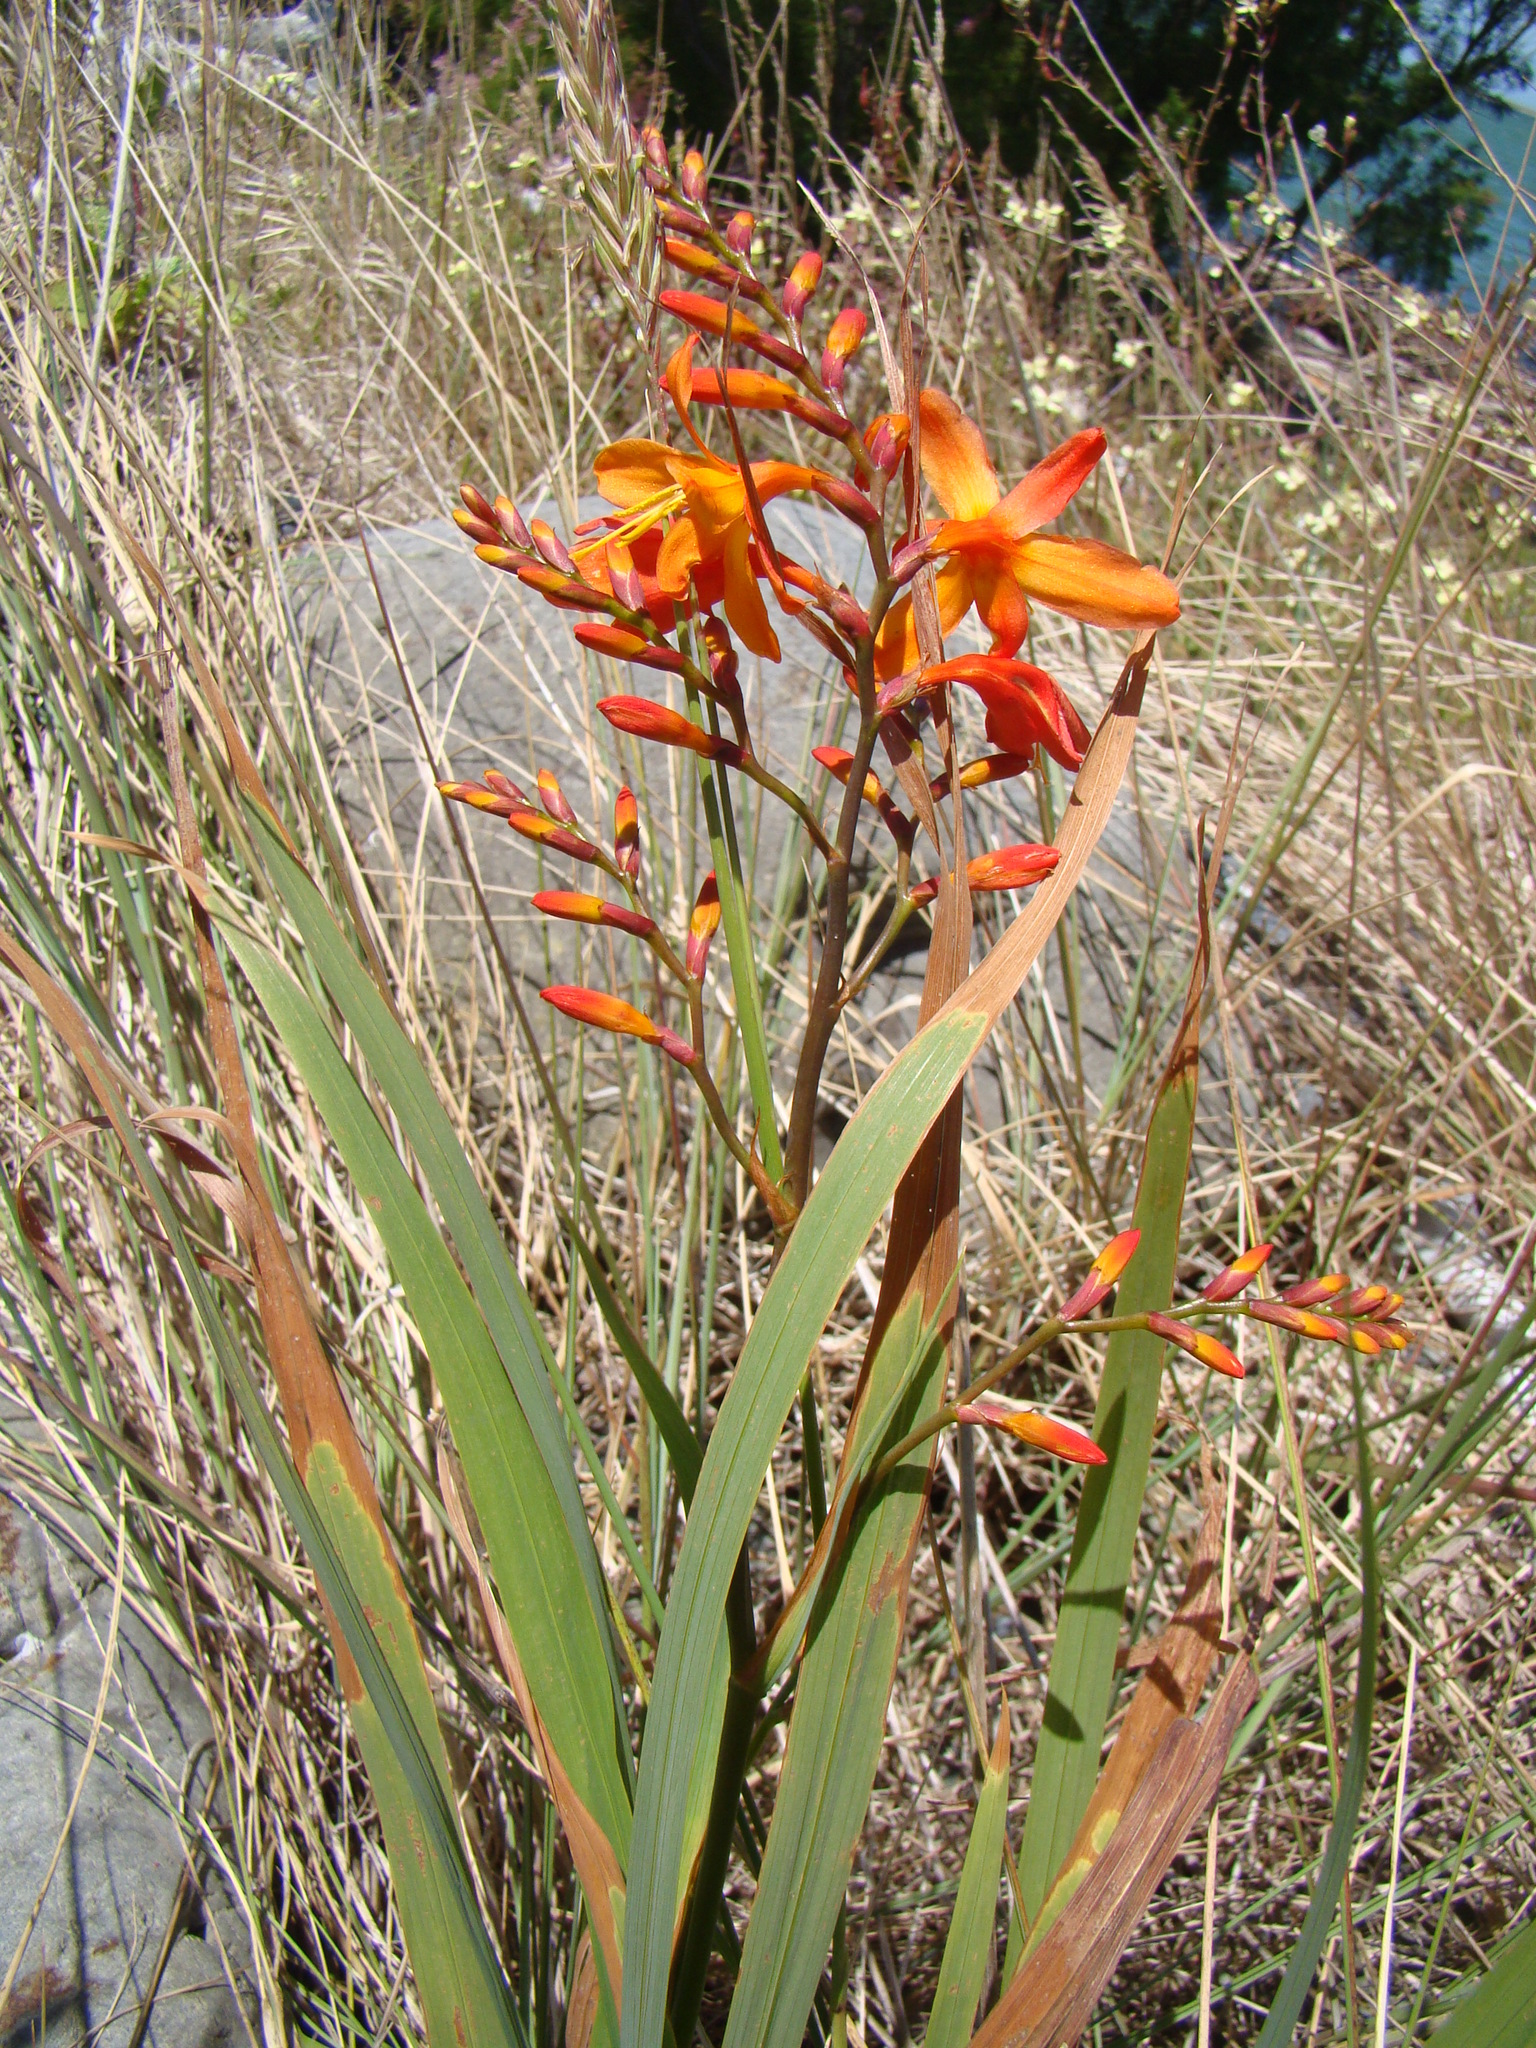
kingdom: Plantae
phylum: Tracheophyta
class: Liliopsida
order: Asparagales
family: Iridaceae
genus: Crocosmia
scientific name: Crocosmia crocosmiiflora
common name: Montbretia
